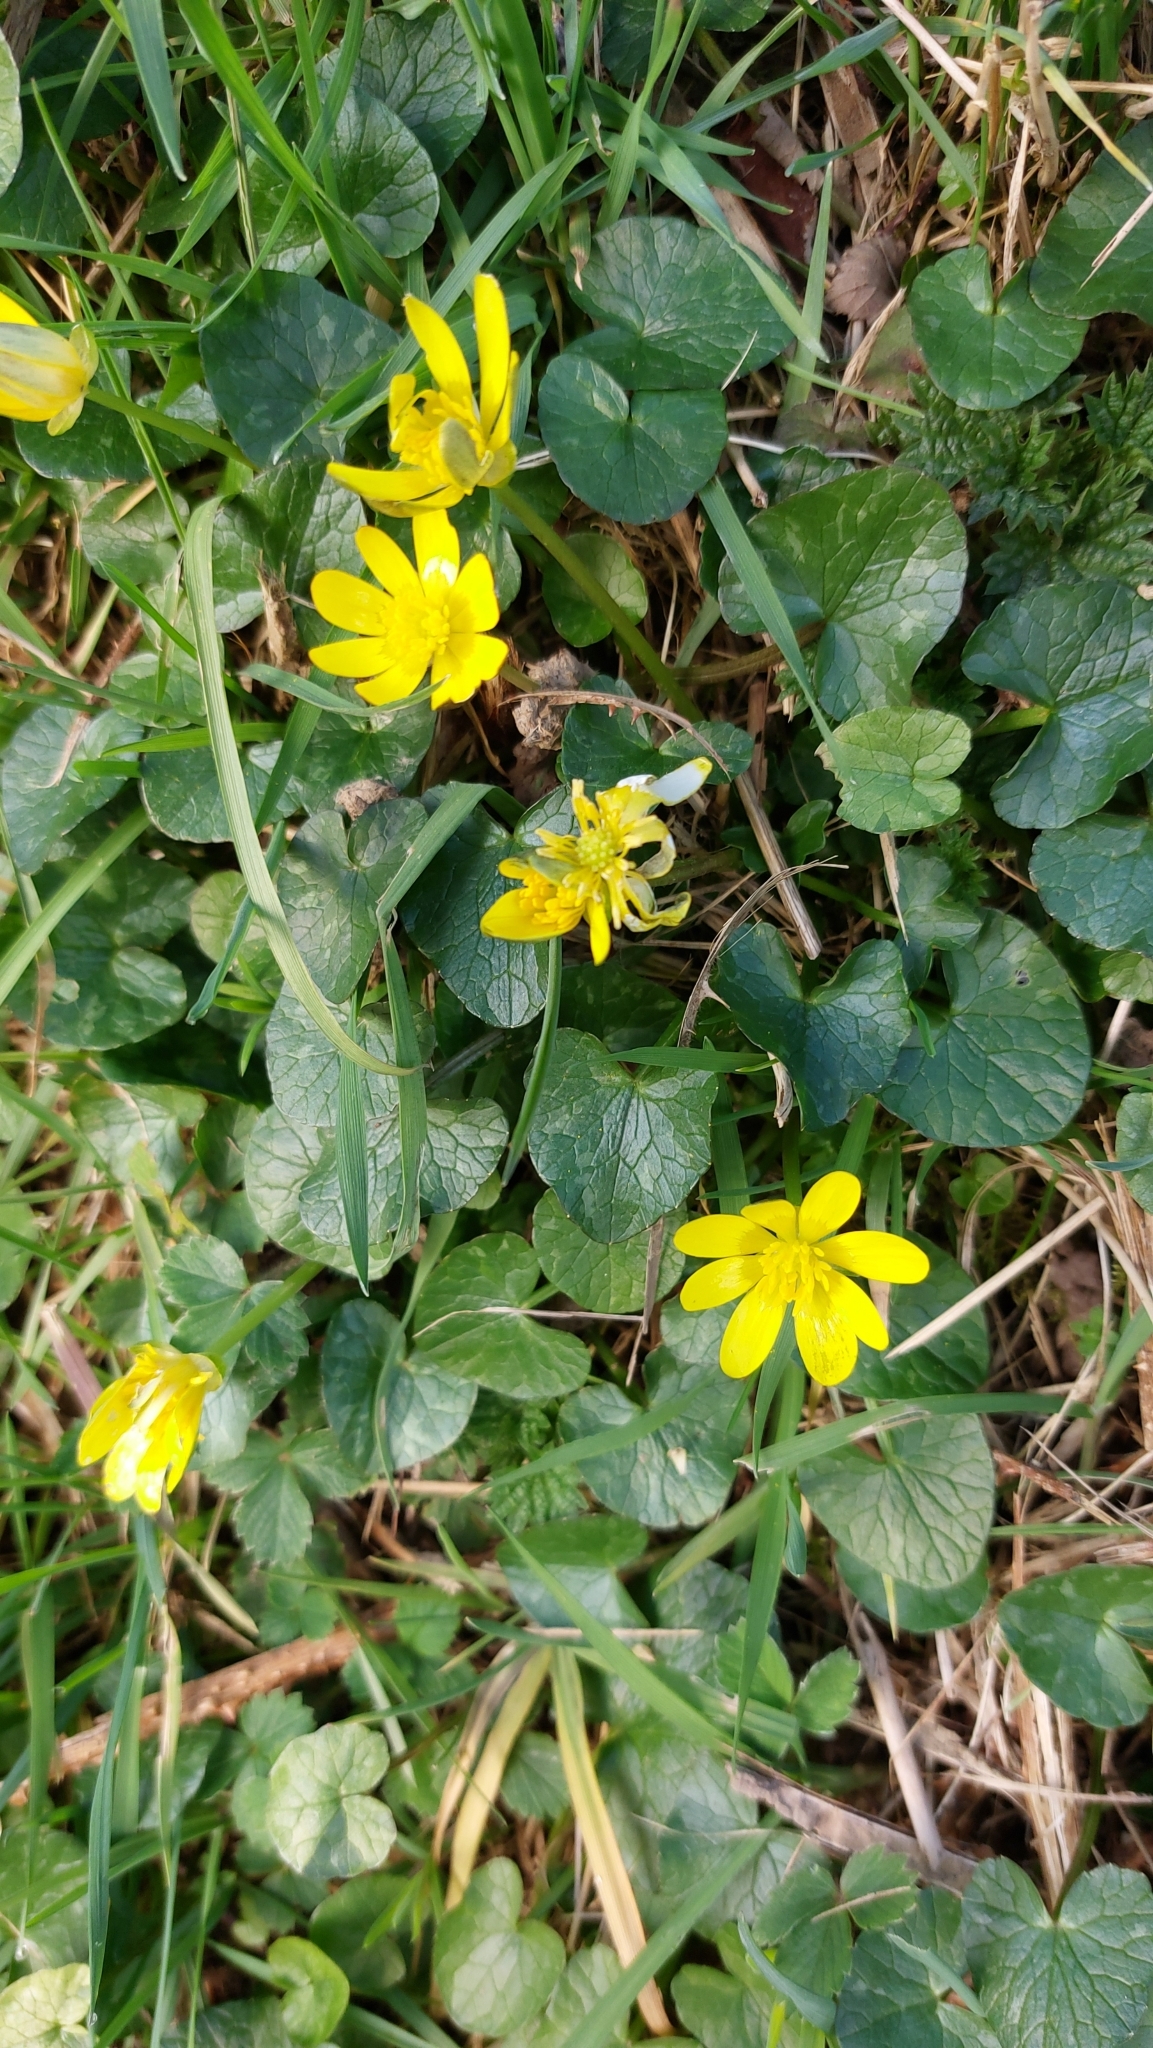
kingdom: Plantae
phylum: Tracheophyta
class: Magnoliopsida
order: Ranunculales
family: Ranunculaceae
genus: Ficaria
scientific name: Ficaria verna
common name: Lesser celandine
